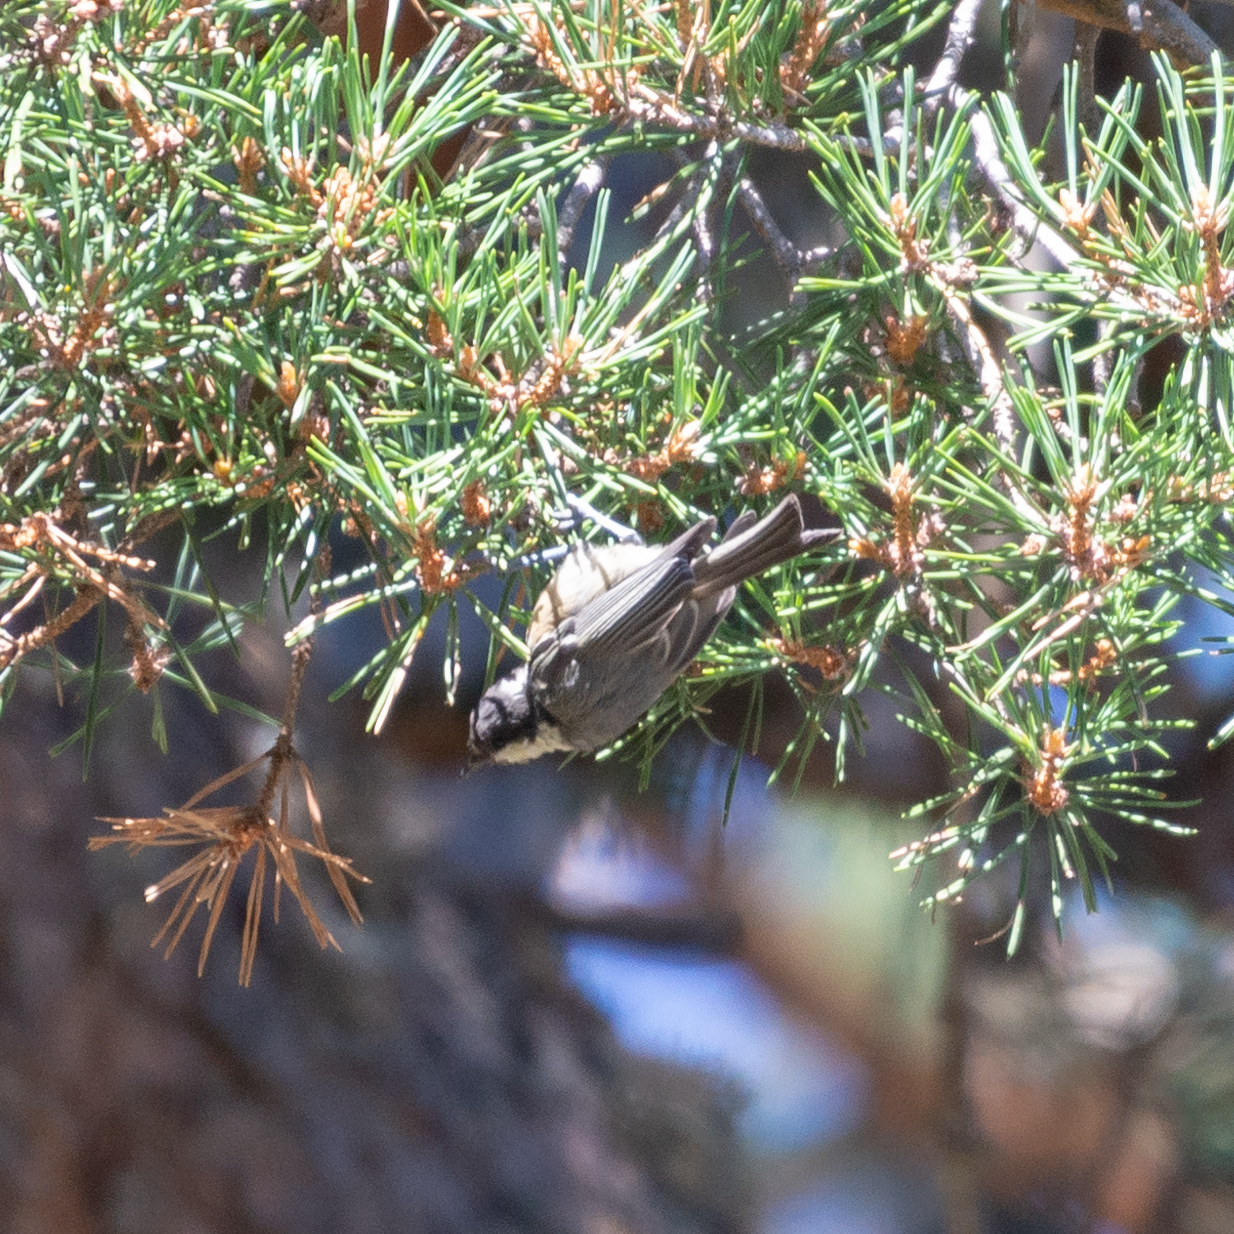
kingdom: Animalia
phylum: Chordata
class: Aves
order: Passeriformes
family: Paridae
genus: Periparus
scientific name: Periparus ater
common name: Coal tit
